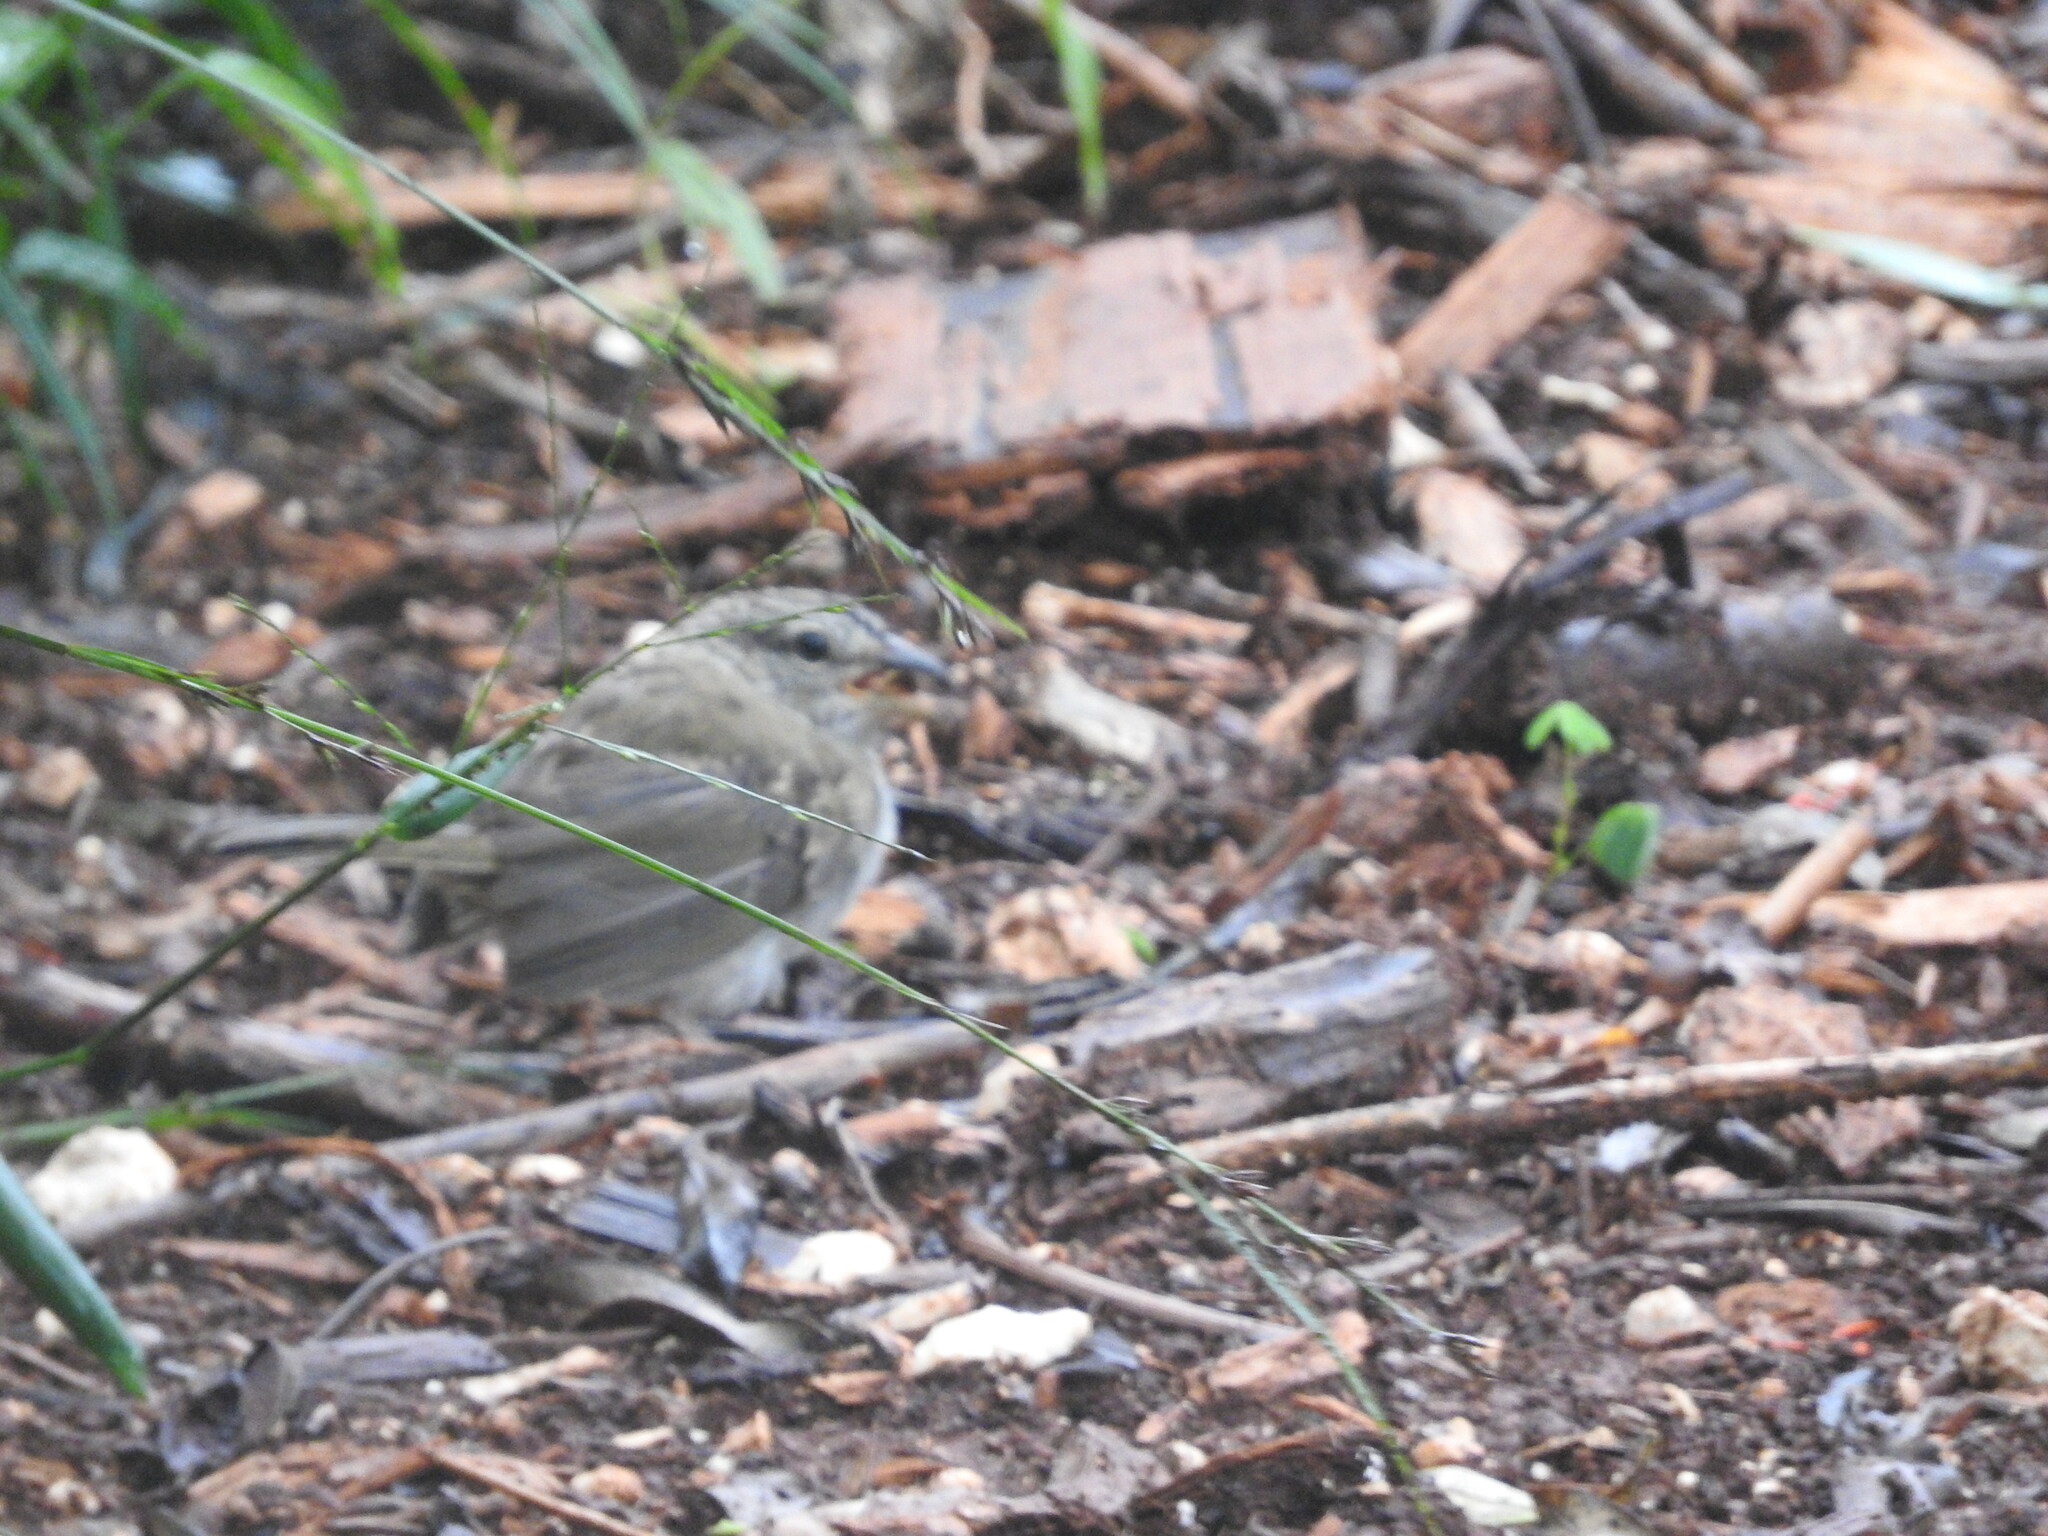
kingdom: Animalia
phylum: Chordata
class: Aves
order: Passeriformes
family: Passerellidae
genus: Arremonops
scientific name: Arremonops rufivirgatus
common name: Olive sparrow
